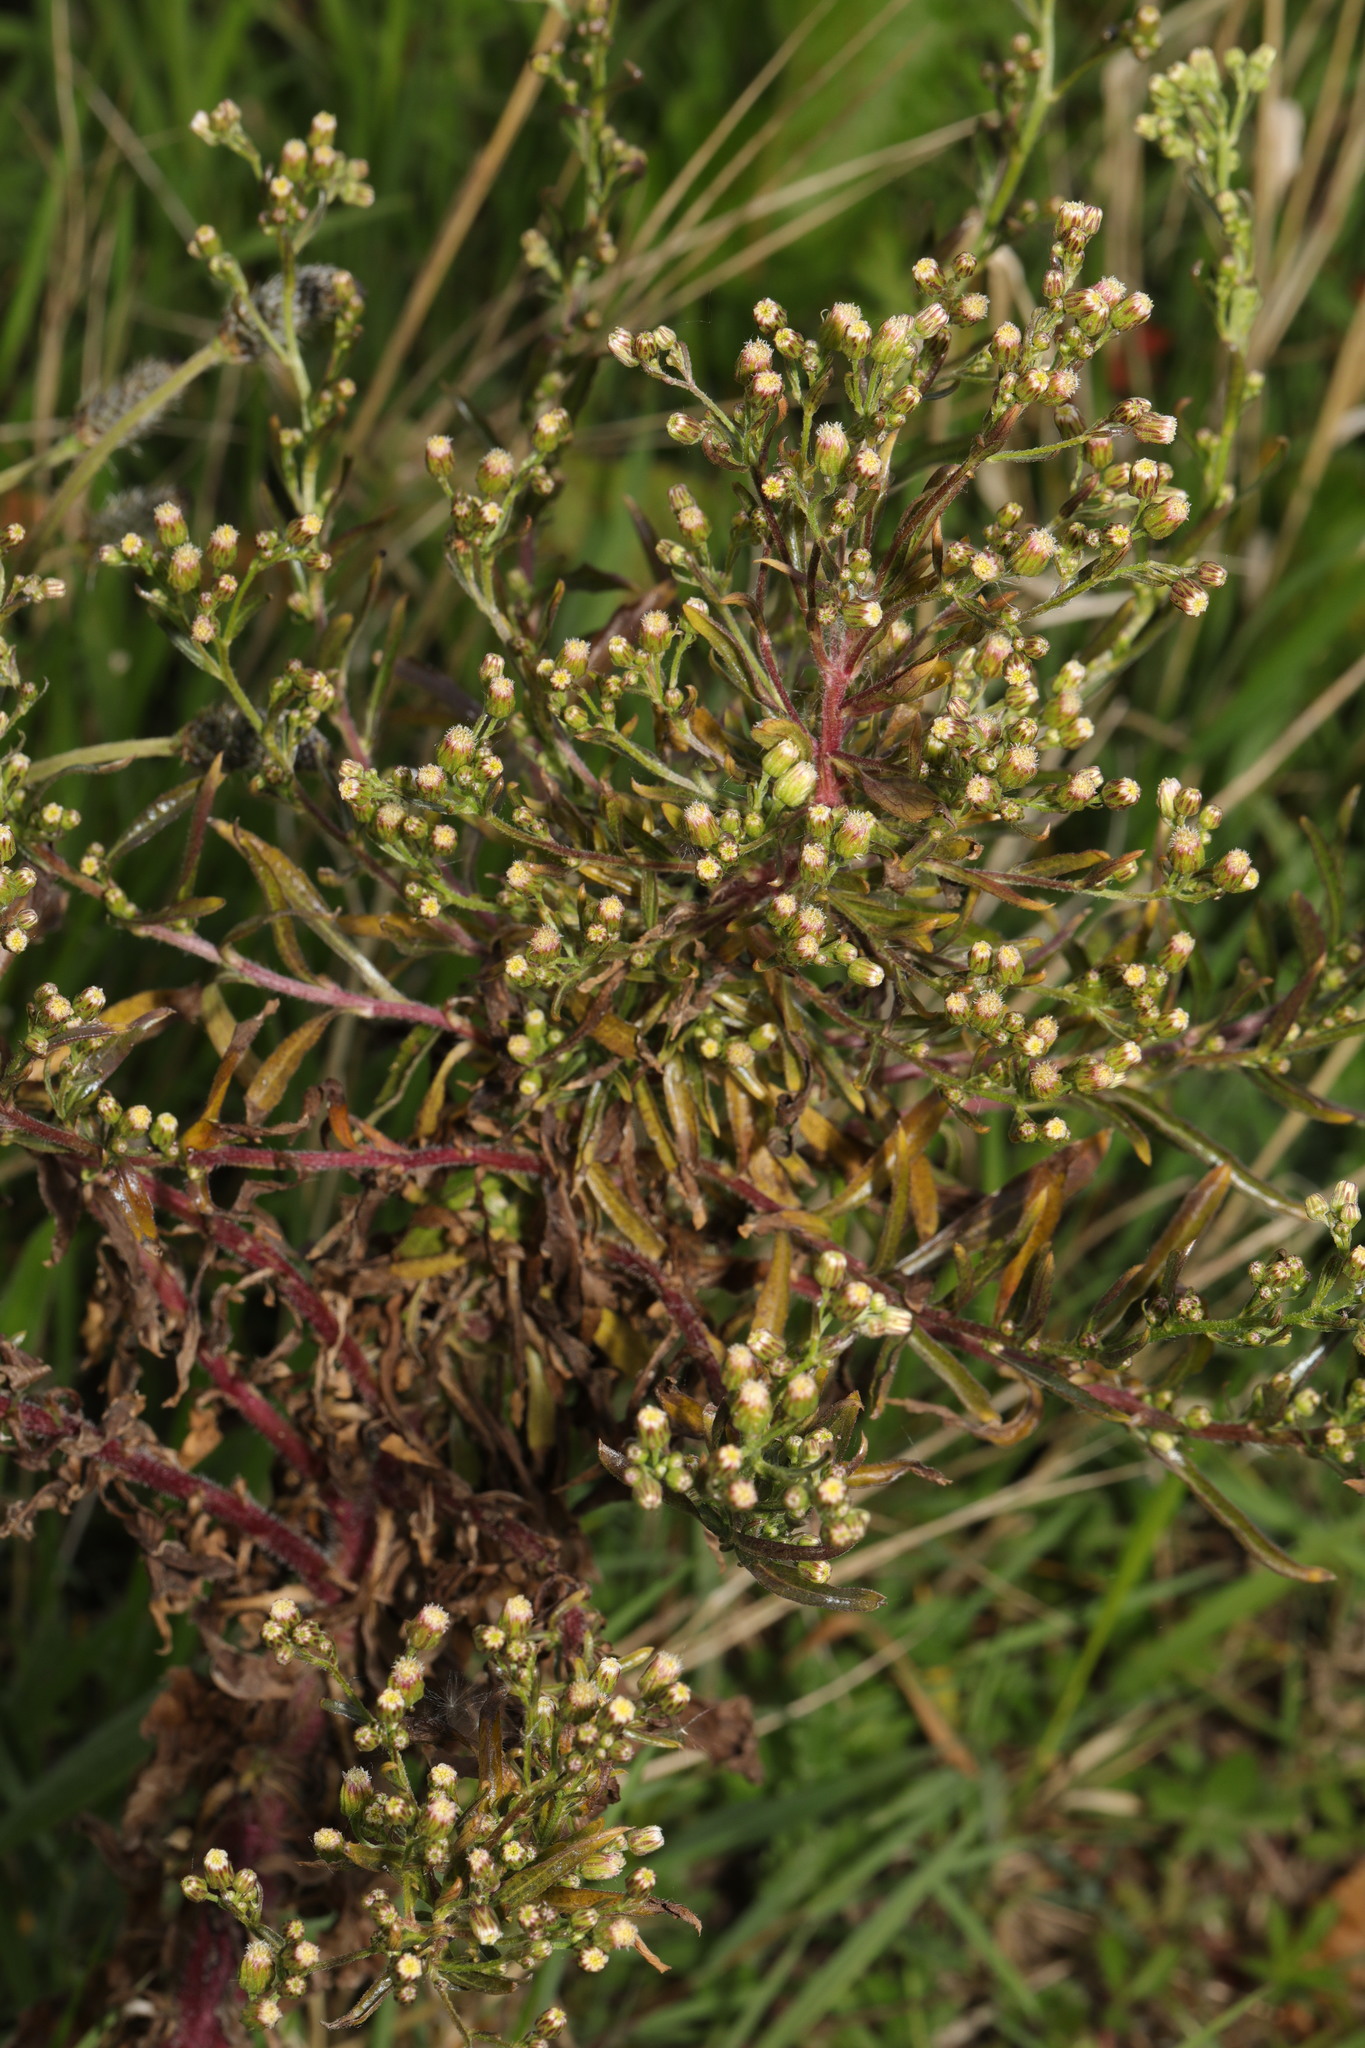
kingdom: Plantae
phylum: Tracheophyta
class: Magnoliopsida
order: Asterales
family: Asteraceae
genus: Erigeron
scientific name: Erigeron canadensis
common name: Canadian fleabane
